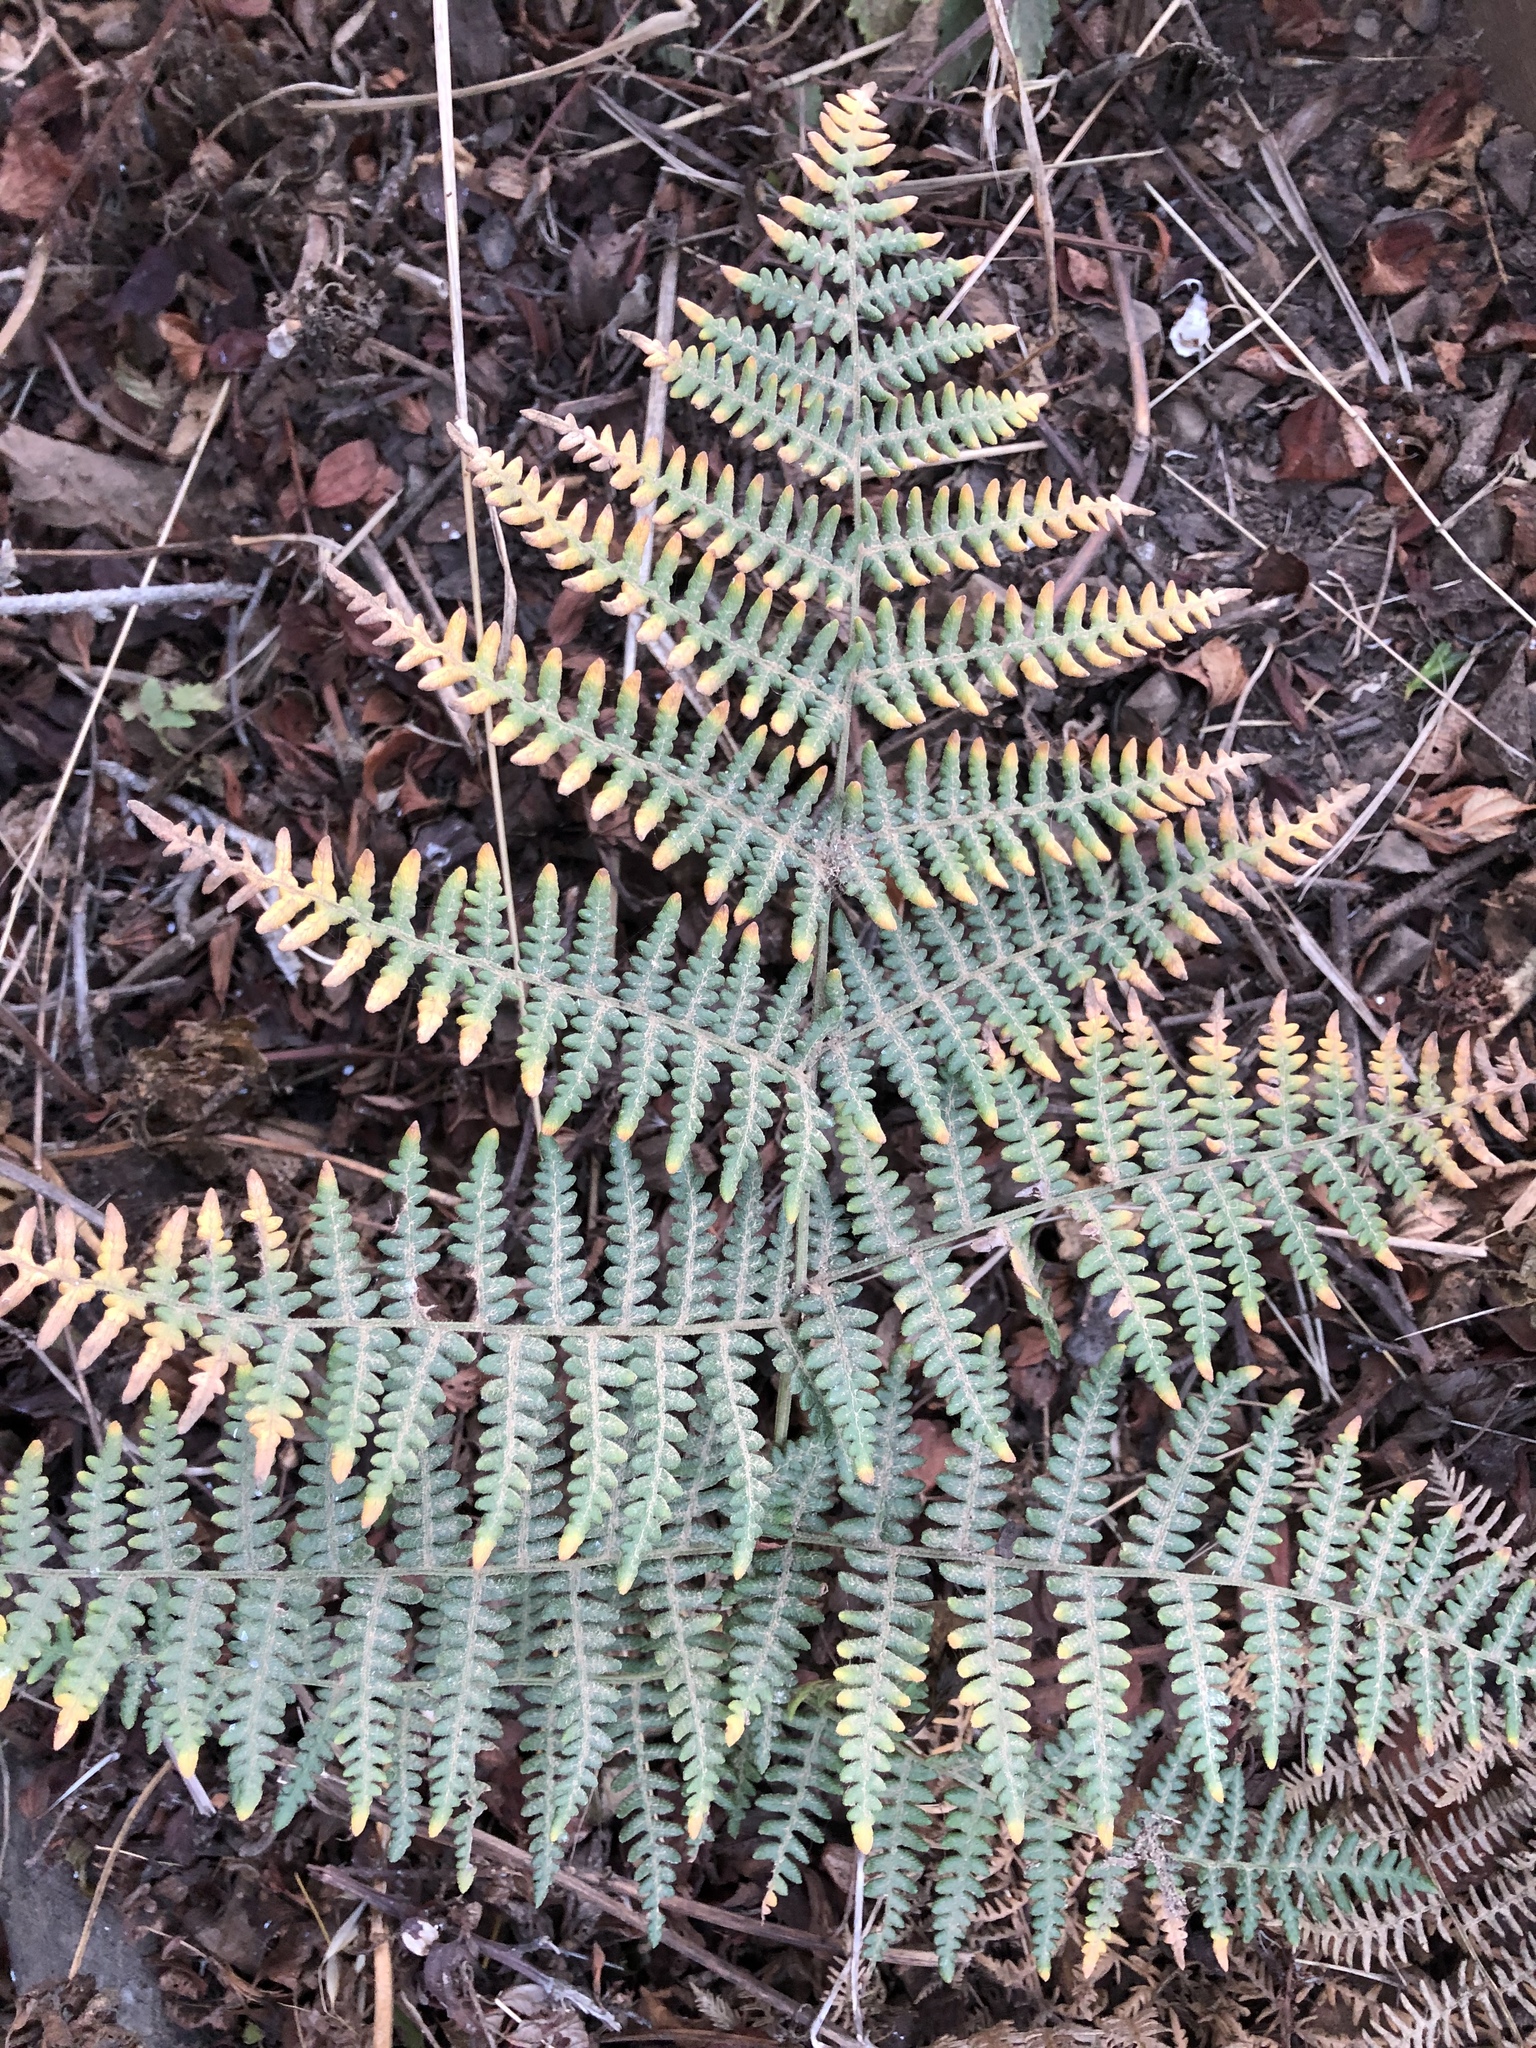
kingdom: Plantae
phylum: Tracheophyta
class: Polypodiopsida
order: Polypodiales
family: Dennstaedtiaceae
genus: Pteridium
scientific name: Pteridium aquilinum
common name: Bracken
